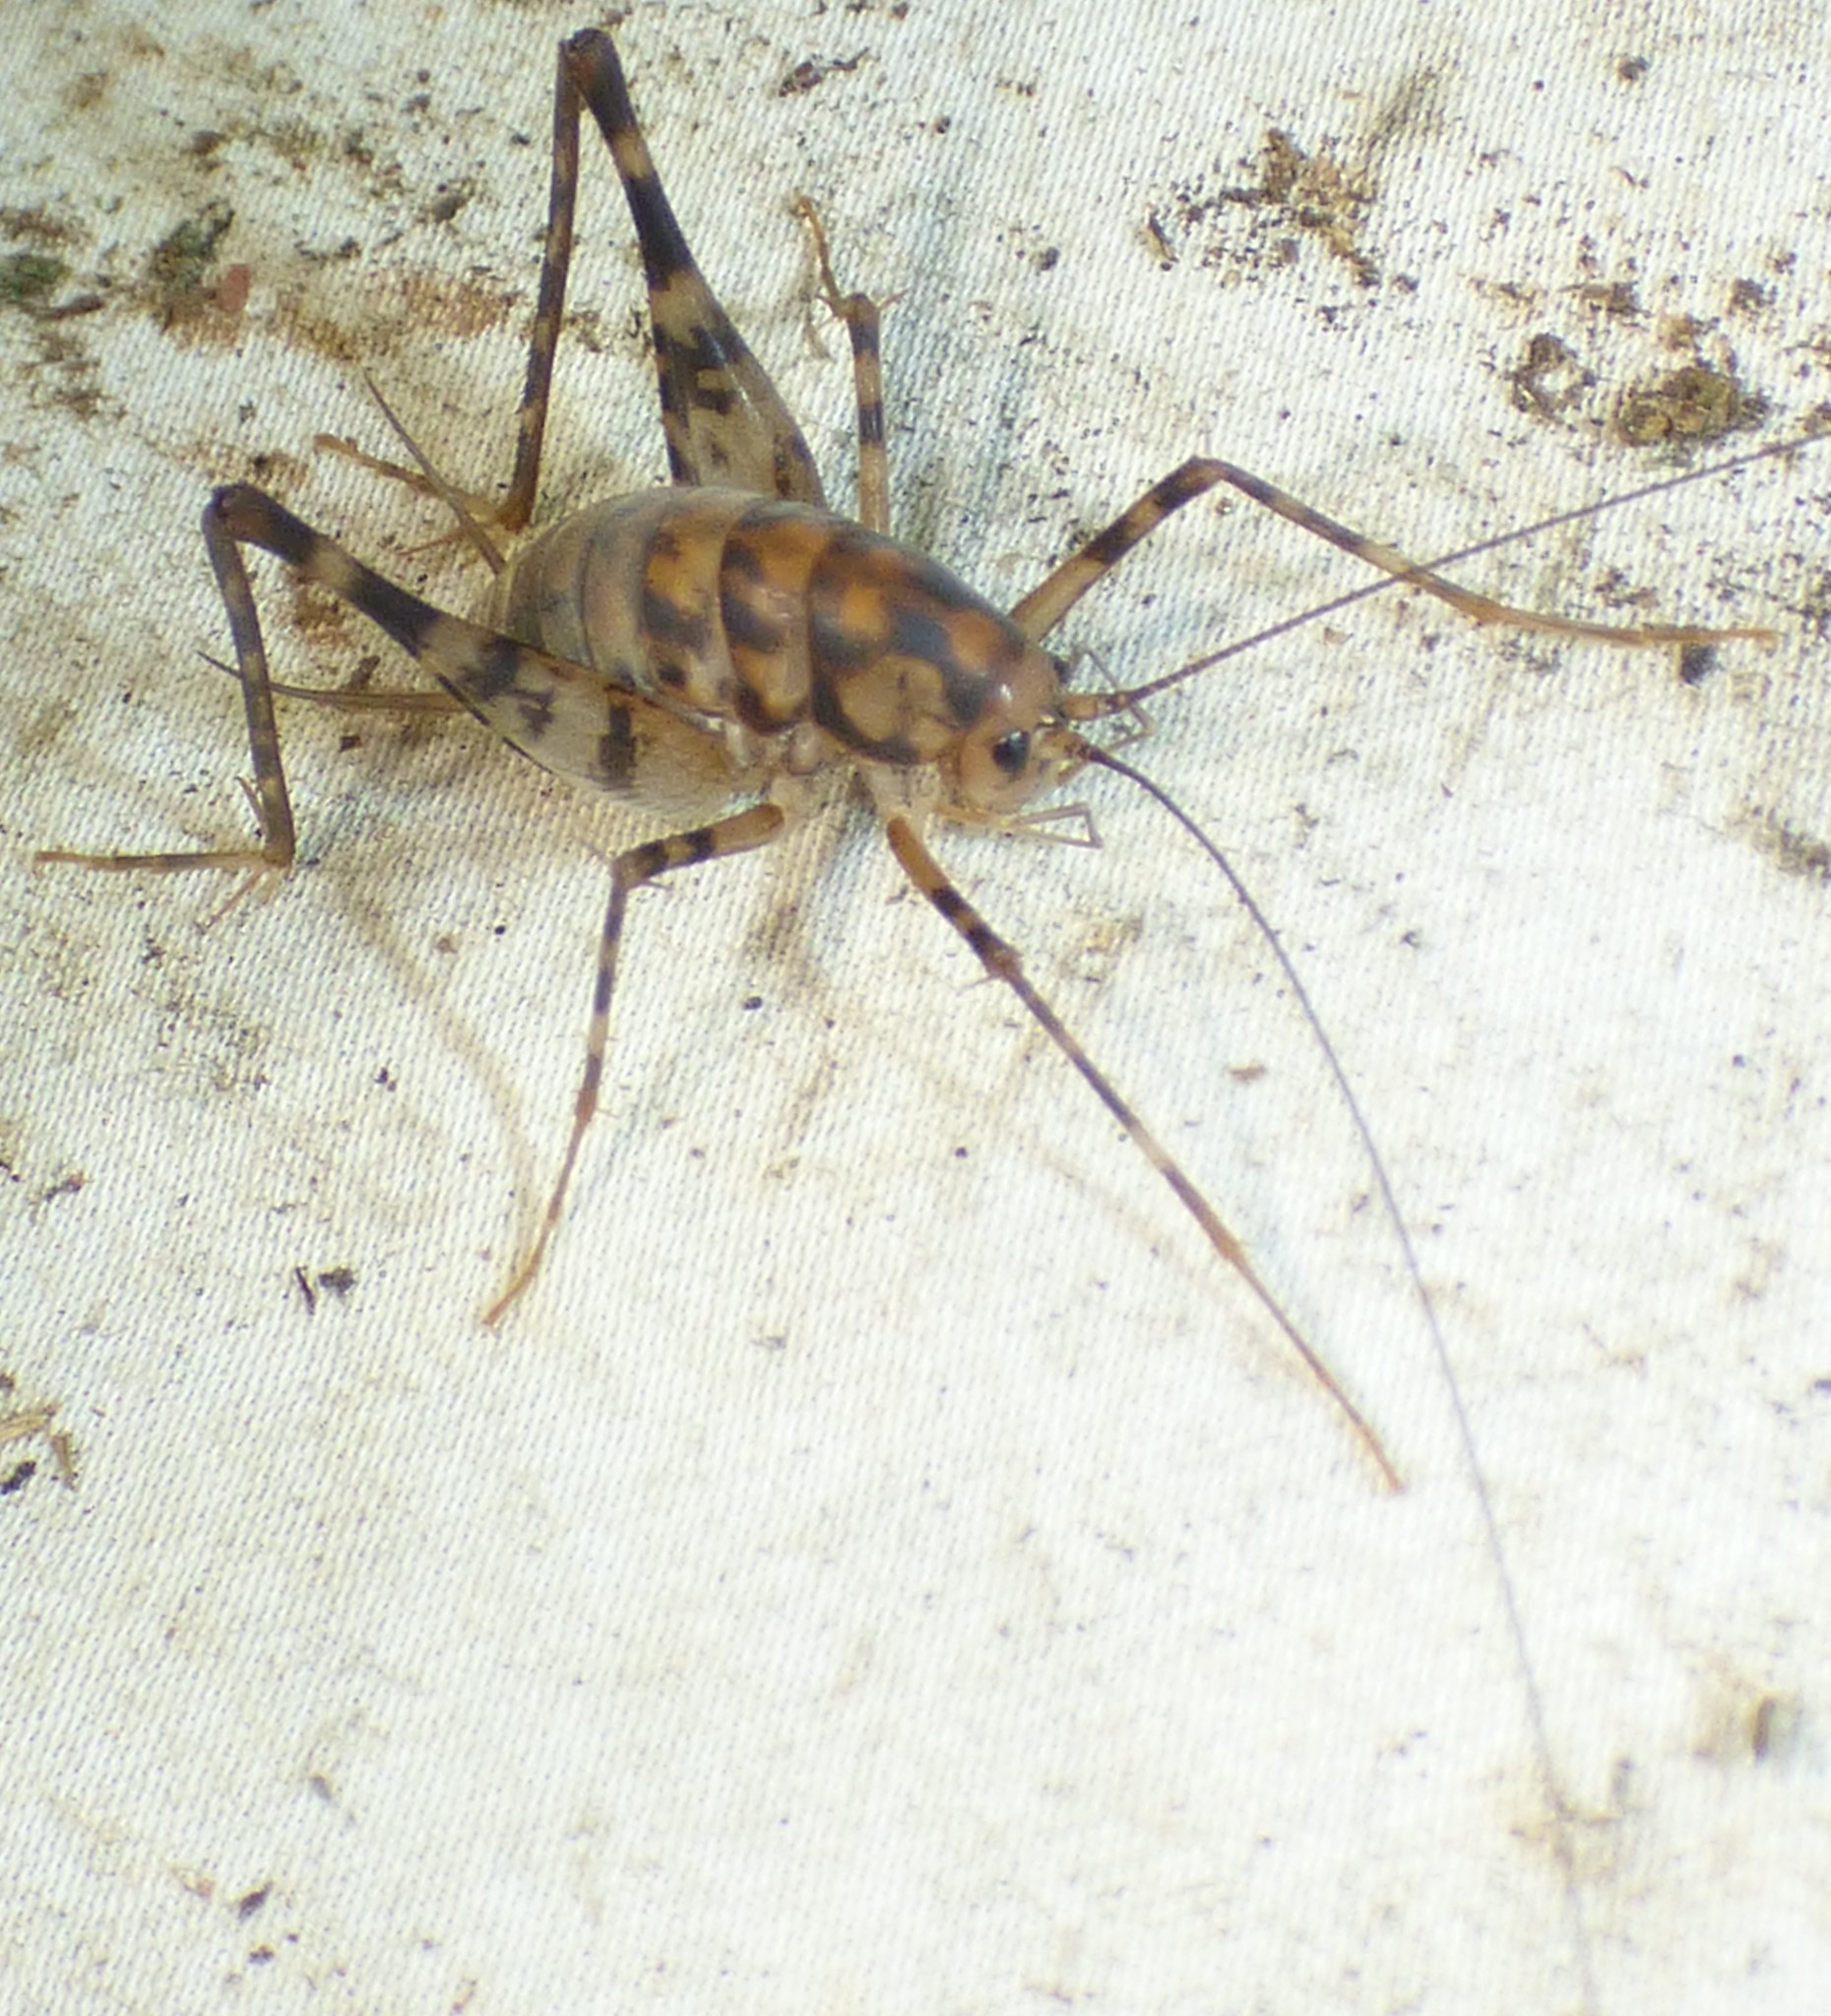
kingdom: Animalia
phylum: Arthropoda
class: Insecta
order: Orthoptera
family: Rhaphidophoridae
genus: Tachycines
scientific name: Tachycines asynamorus
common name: Greenhouse camel cricket
